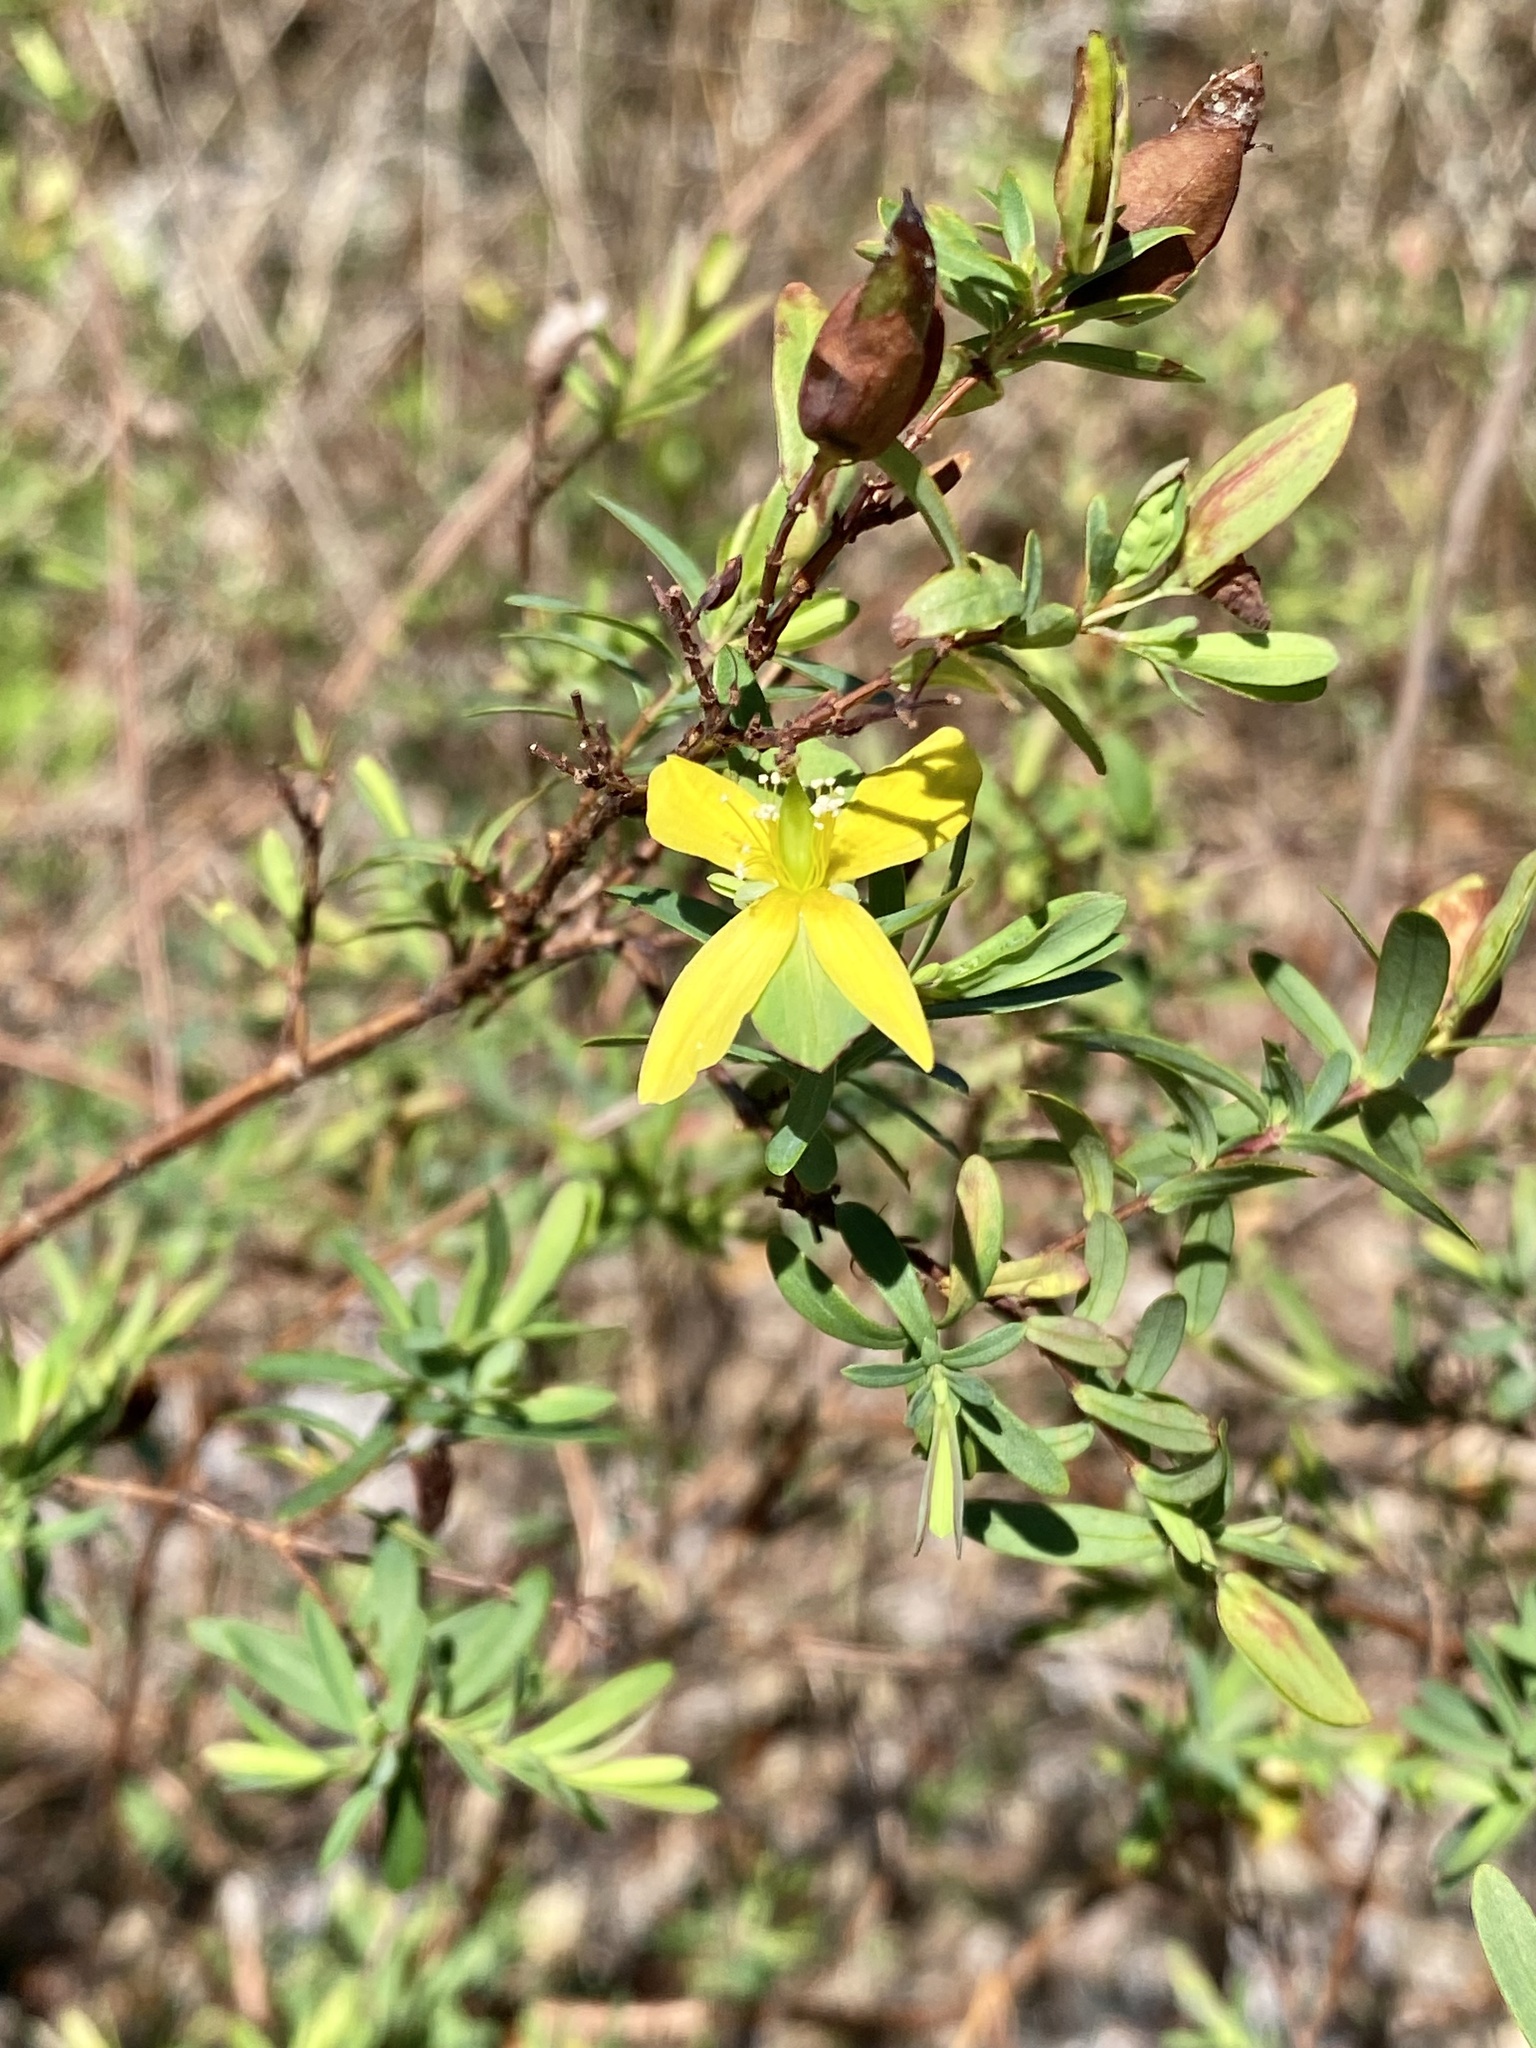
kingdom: Plantae
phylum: Tracheophyta
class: Magnoliopsida
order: Malpighiales
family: Hypericaceae
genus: Hypericum
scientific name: Hypericum hypericoides
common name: St. andrew's cross
